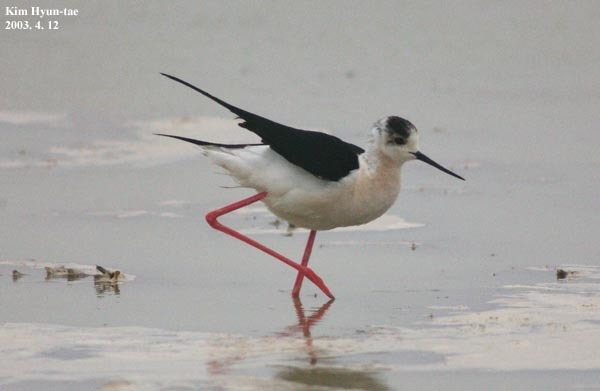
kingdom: Animalia
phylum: Chordata
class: Aves
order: Charadriiformes
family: Recurvirostridae
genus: Himantopus
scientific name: Himantopus himantopus
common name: Black-winged stilt
